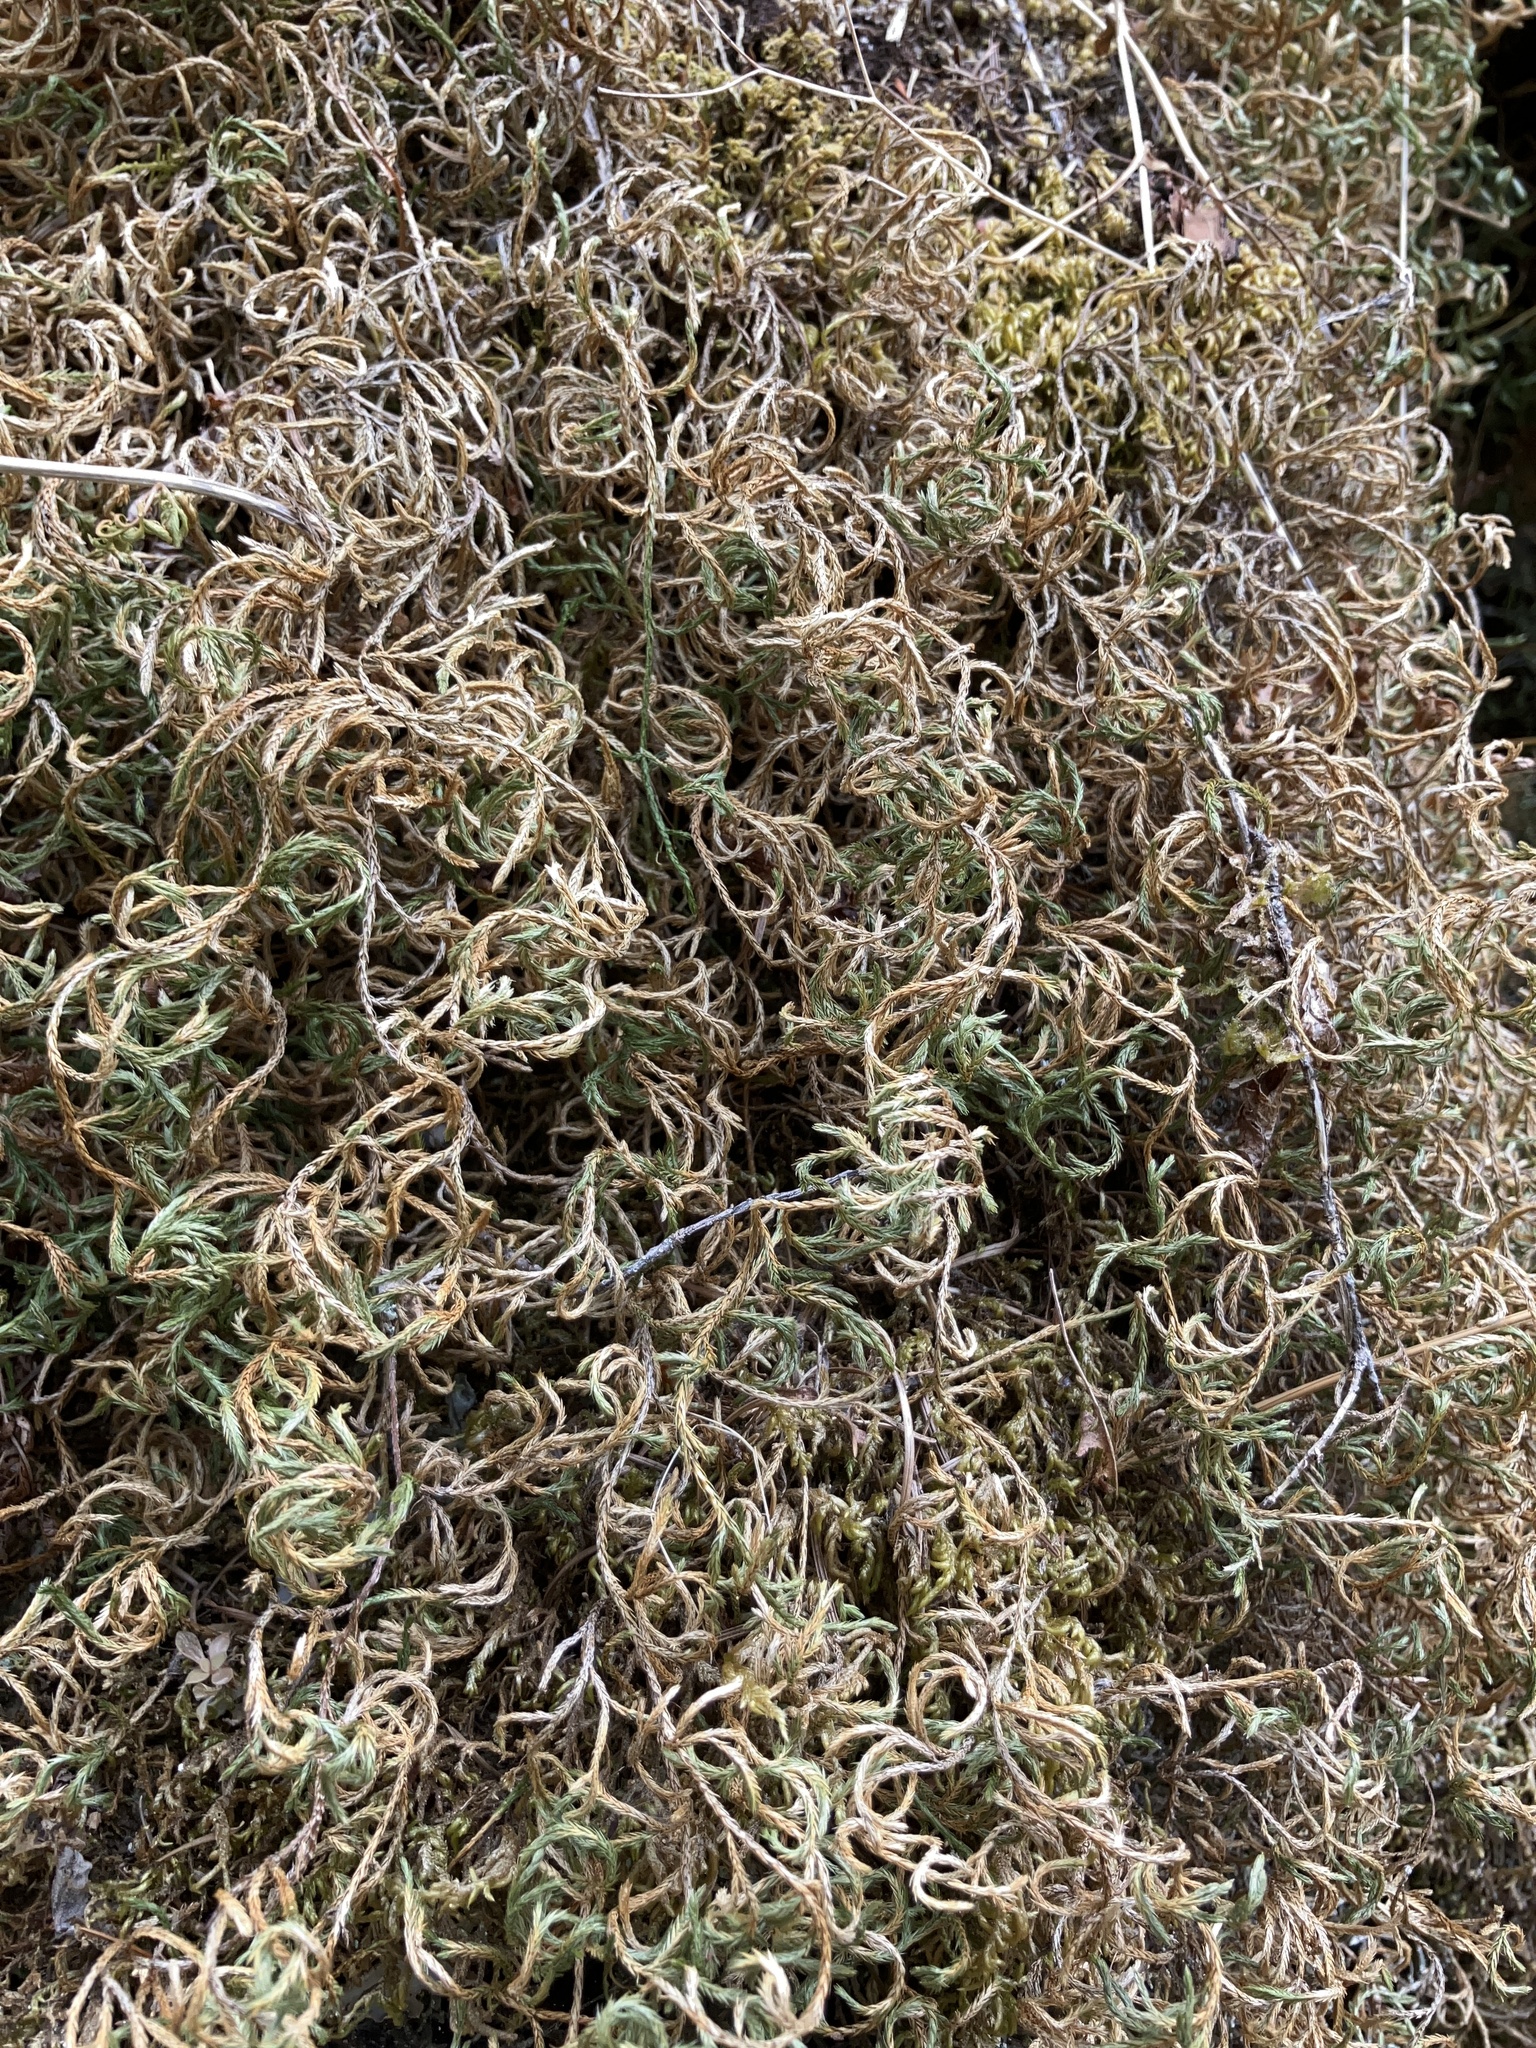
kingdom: Plantae
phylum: Tracheophyta
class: Lycopodiopsida
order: Selaginellales
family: Selaginellaceae
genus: Selaginella
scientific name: Selaginella oregana
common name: Oregon selaginella
